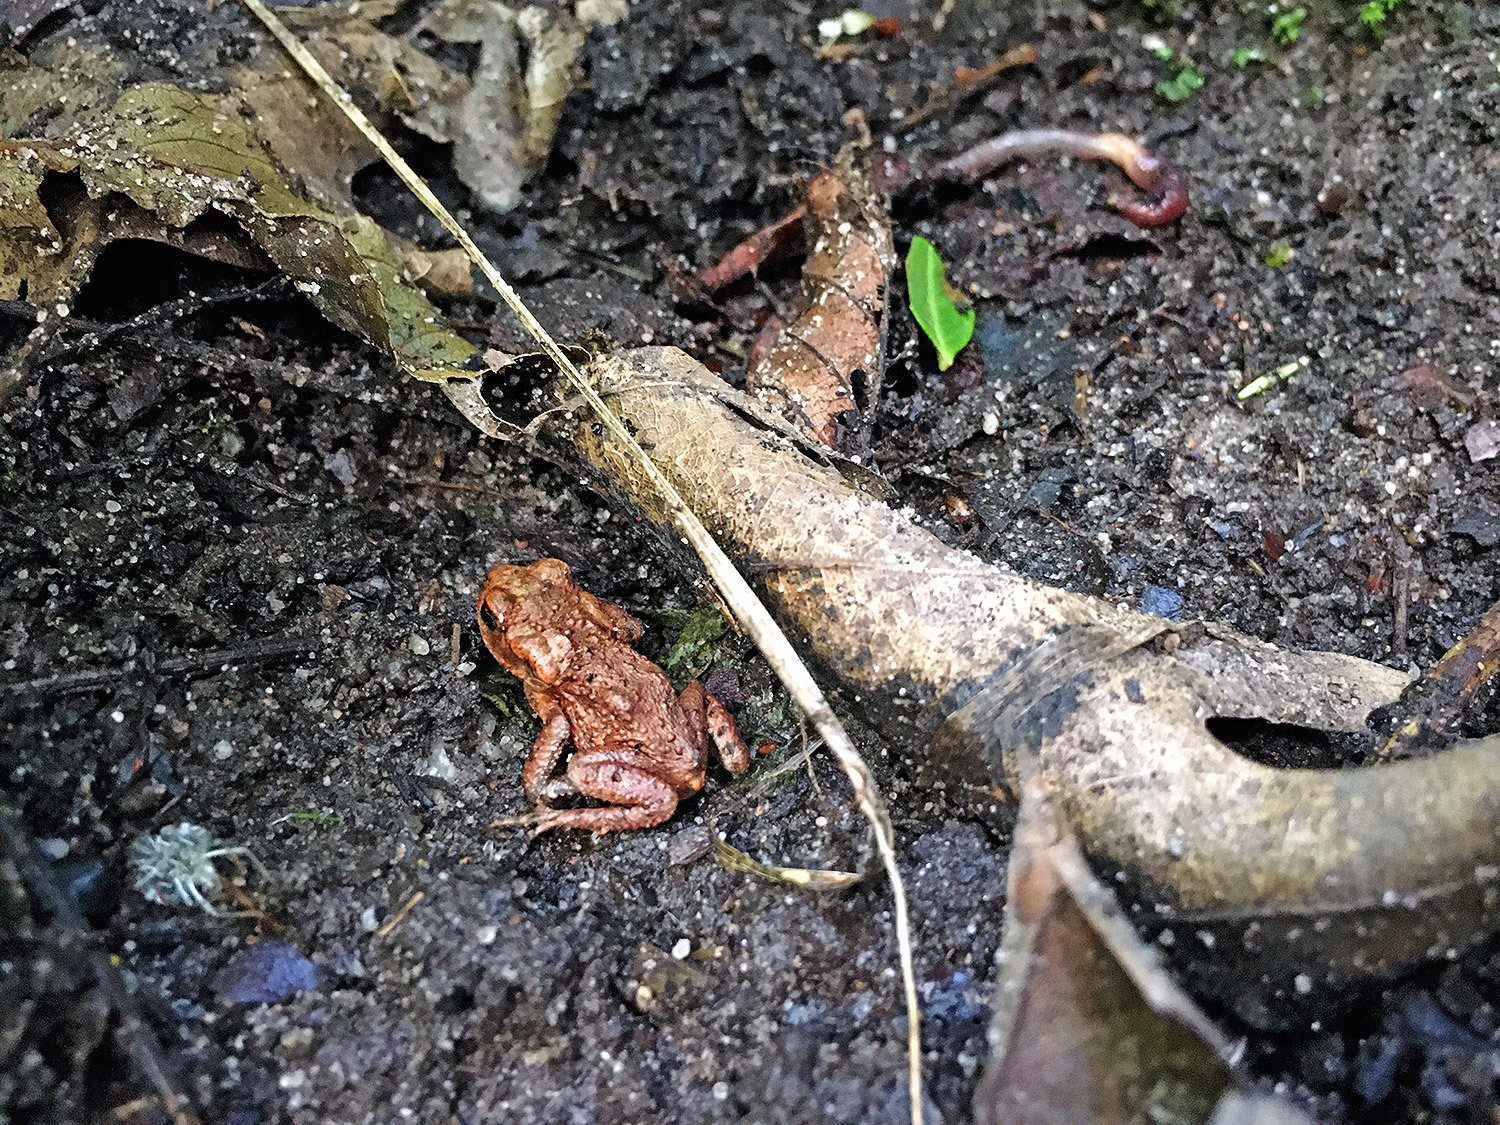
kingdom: Animalia
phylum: Chordata
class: Amphibia
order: Anura
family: Bufonidae
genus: Bufo
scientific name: Bufo bufo
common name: Common toad
